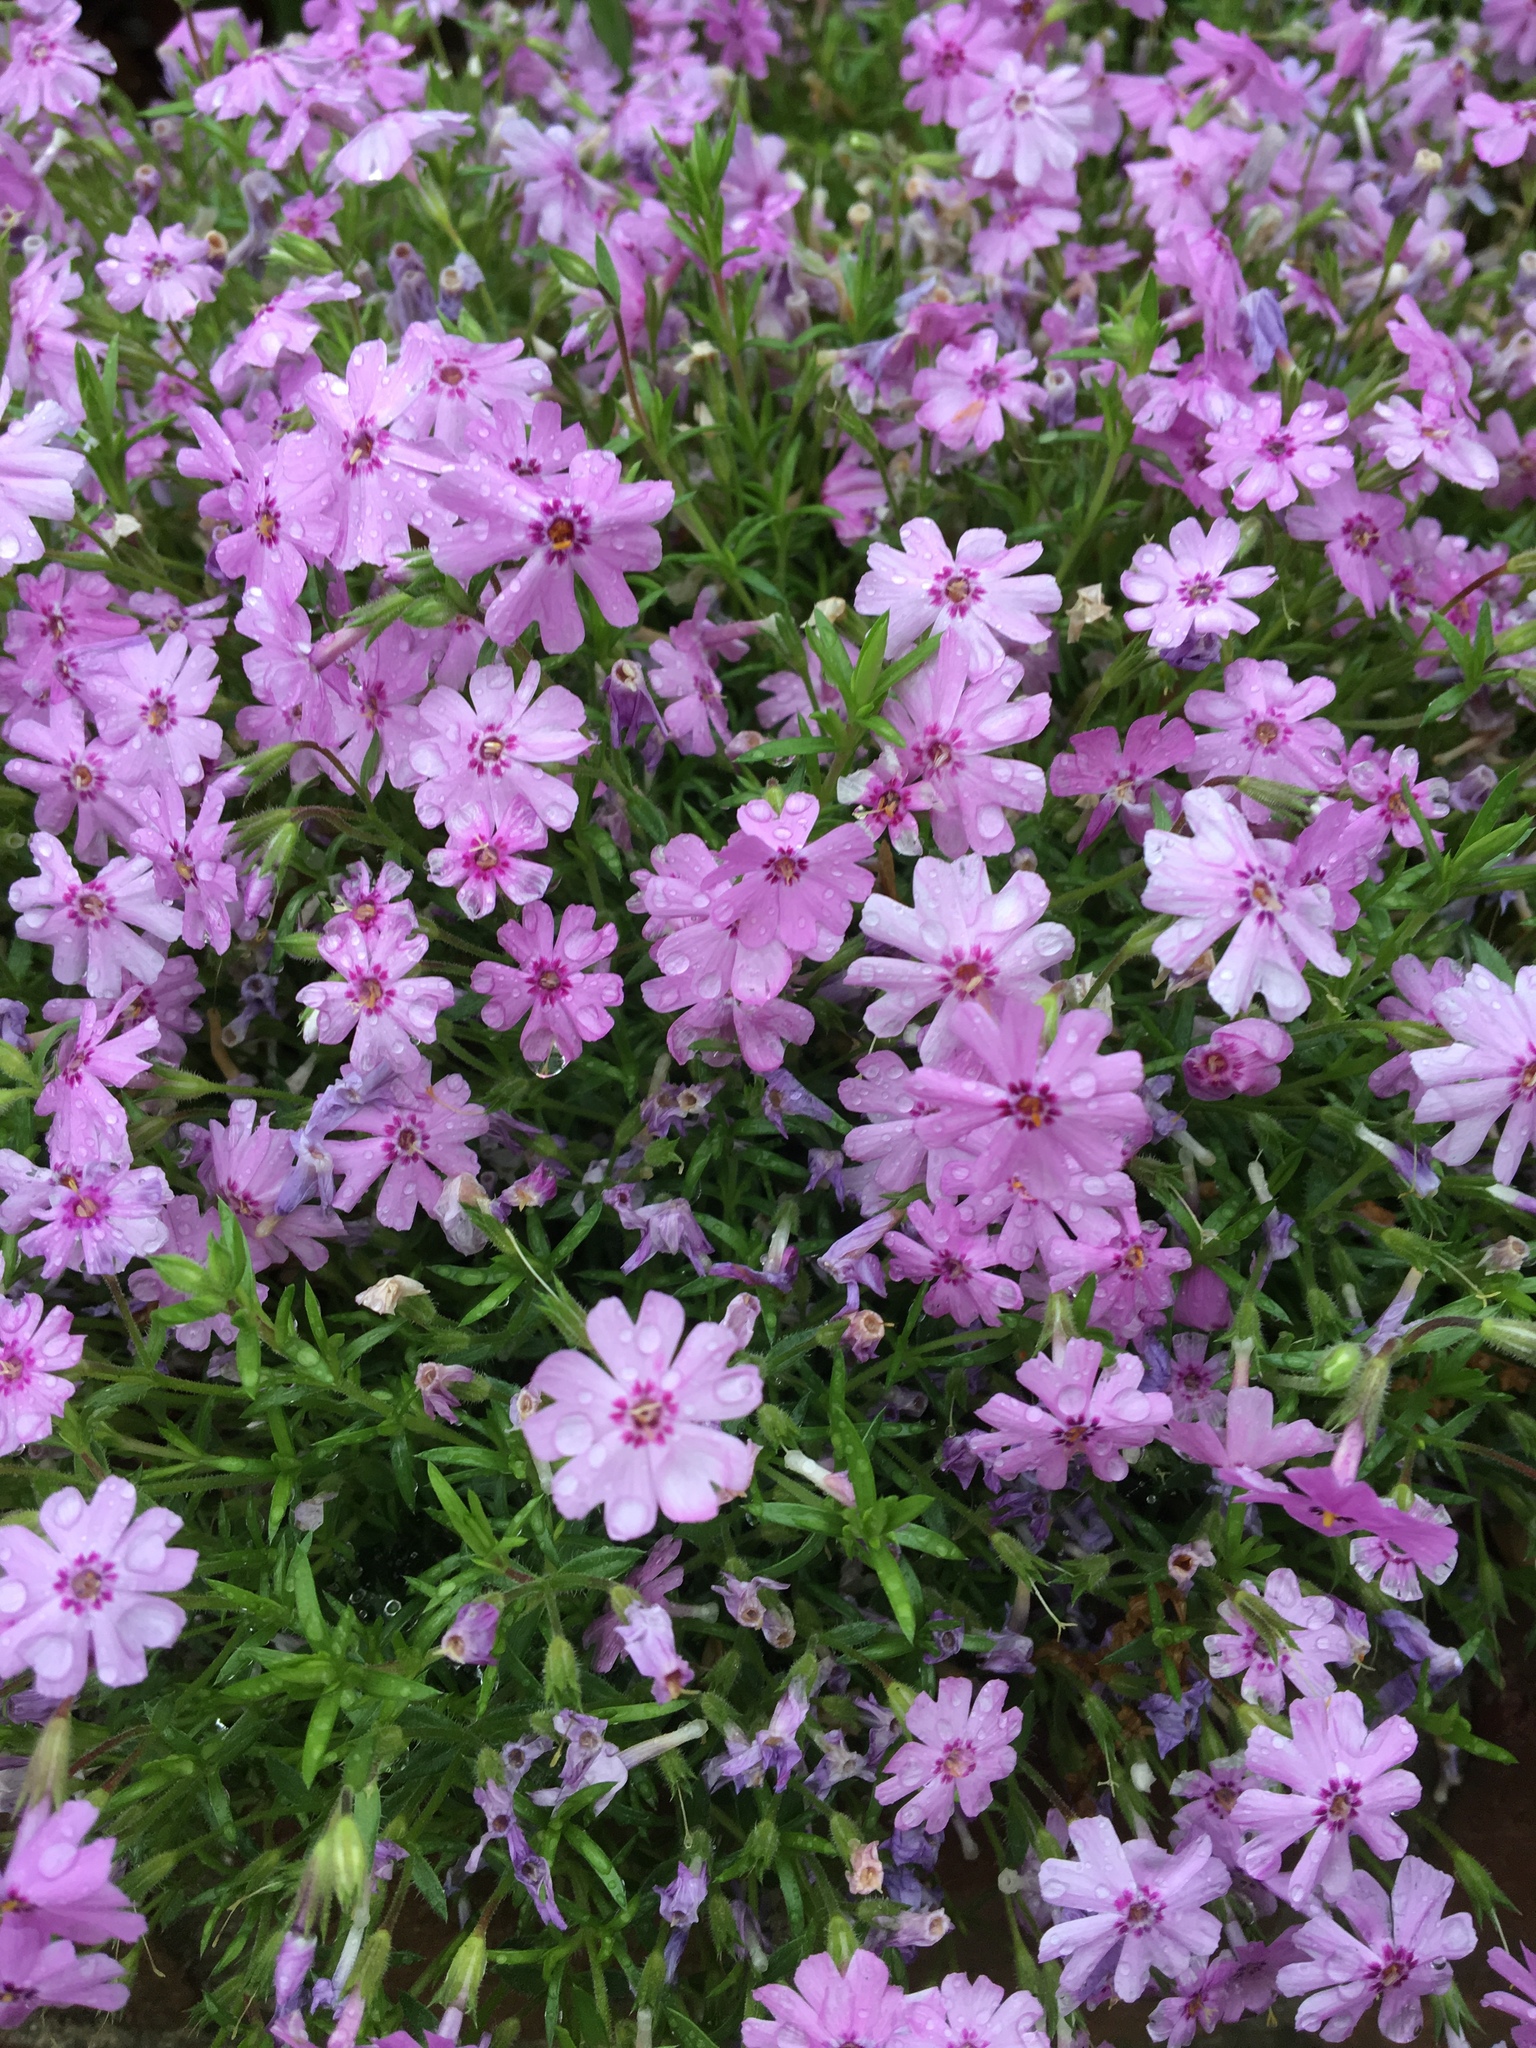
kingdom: Plantae
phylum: Tracheophyta
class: Magnoliopsida
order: Ericales
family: Polemoniaceae
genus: Phlox
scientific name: Phlox subulata
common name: Moss phlox
